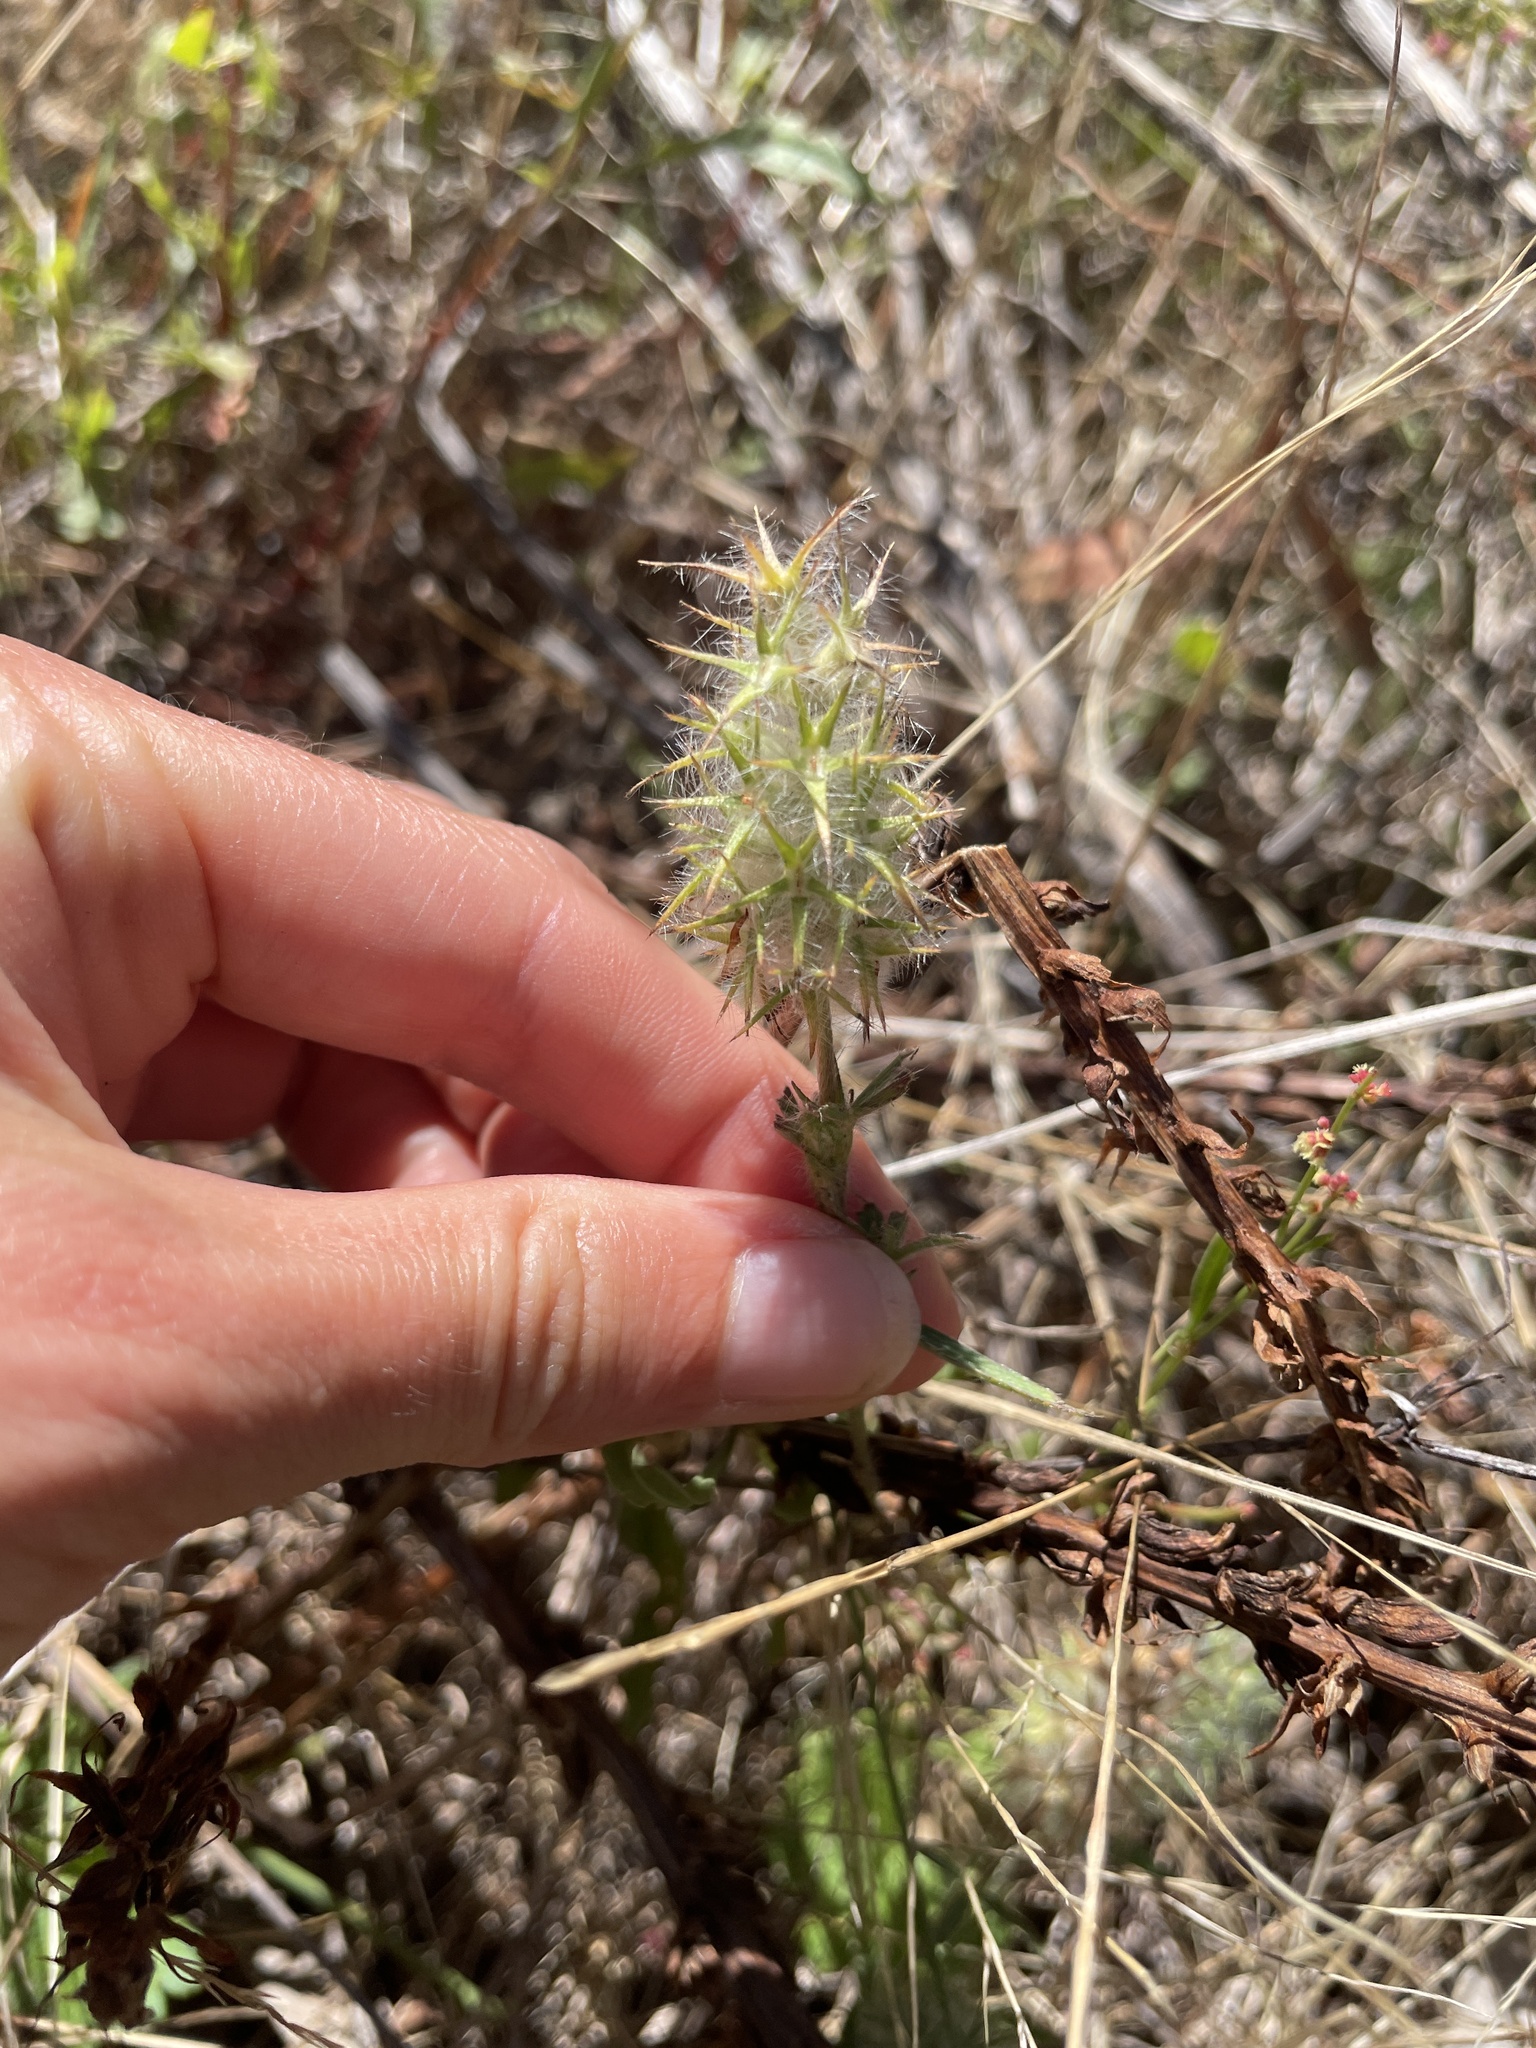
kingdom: Plantae
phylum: Tracheophyta
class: Magnoliopsida
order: Fabales
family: Fabaceae
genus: Trifolium
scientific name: Trifolium
